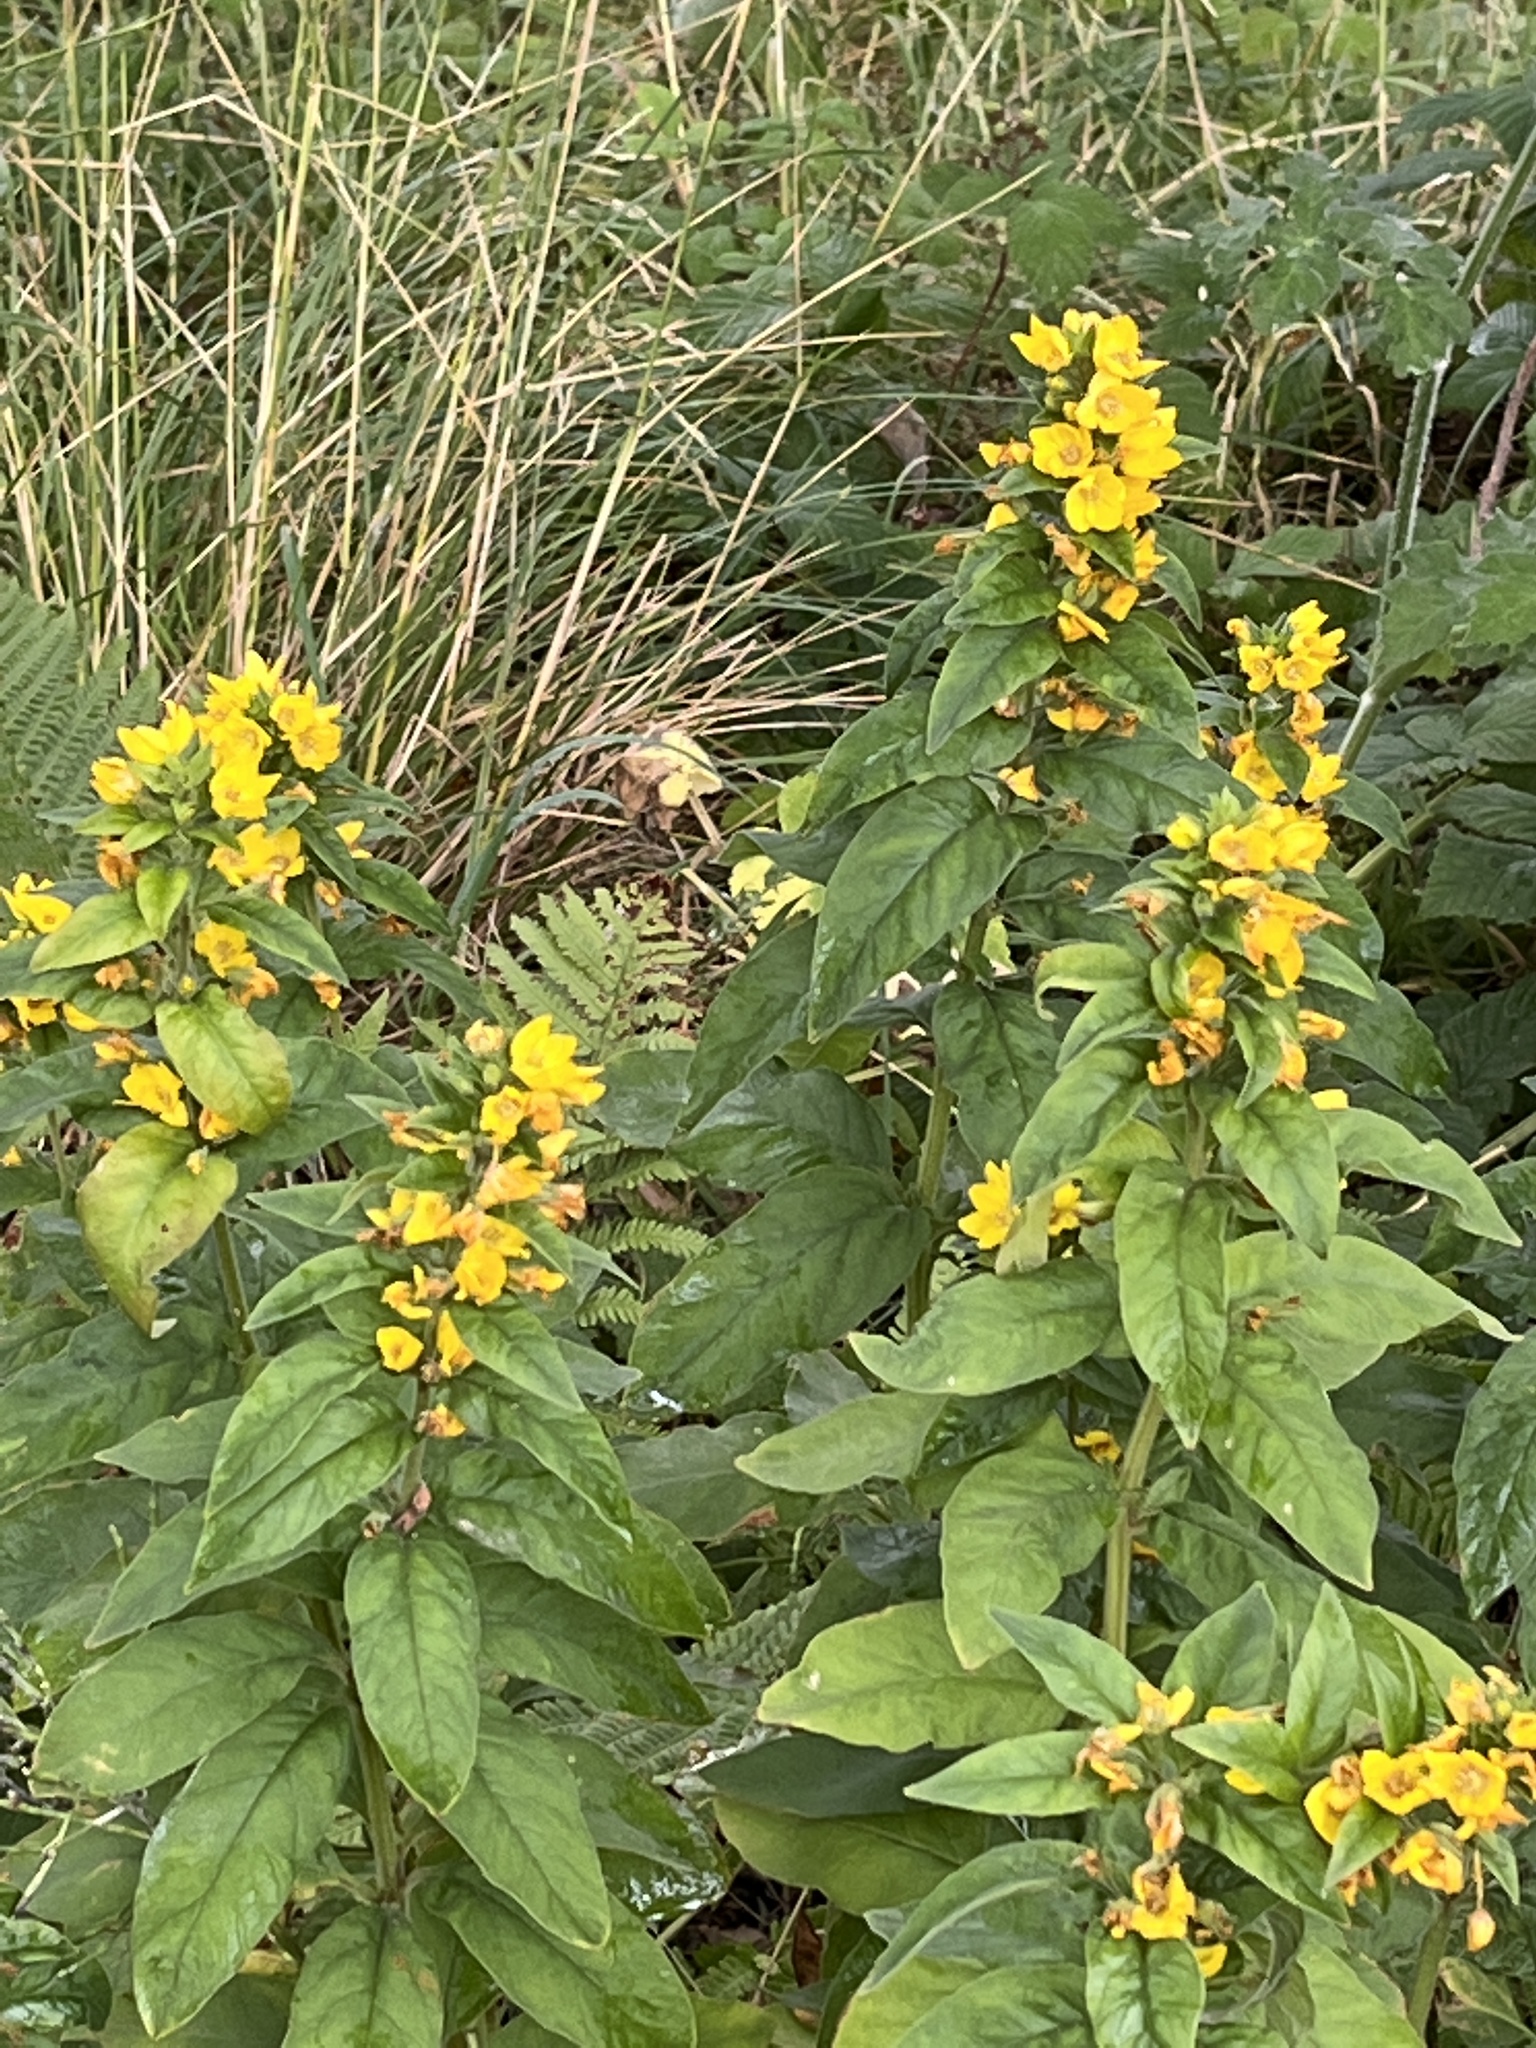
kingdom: Plantae
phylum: Tracheophyta
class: Magnoliopsida
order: Ericales
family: Primulaceae
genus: Lysimachia
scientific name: Lysimachia punctata
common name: Dotted loosestrife
